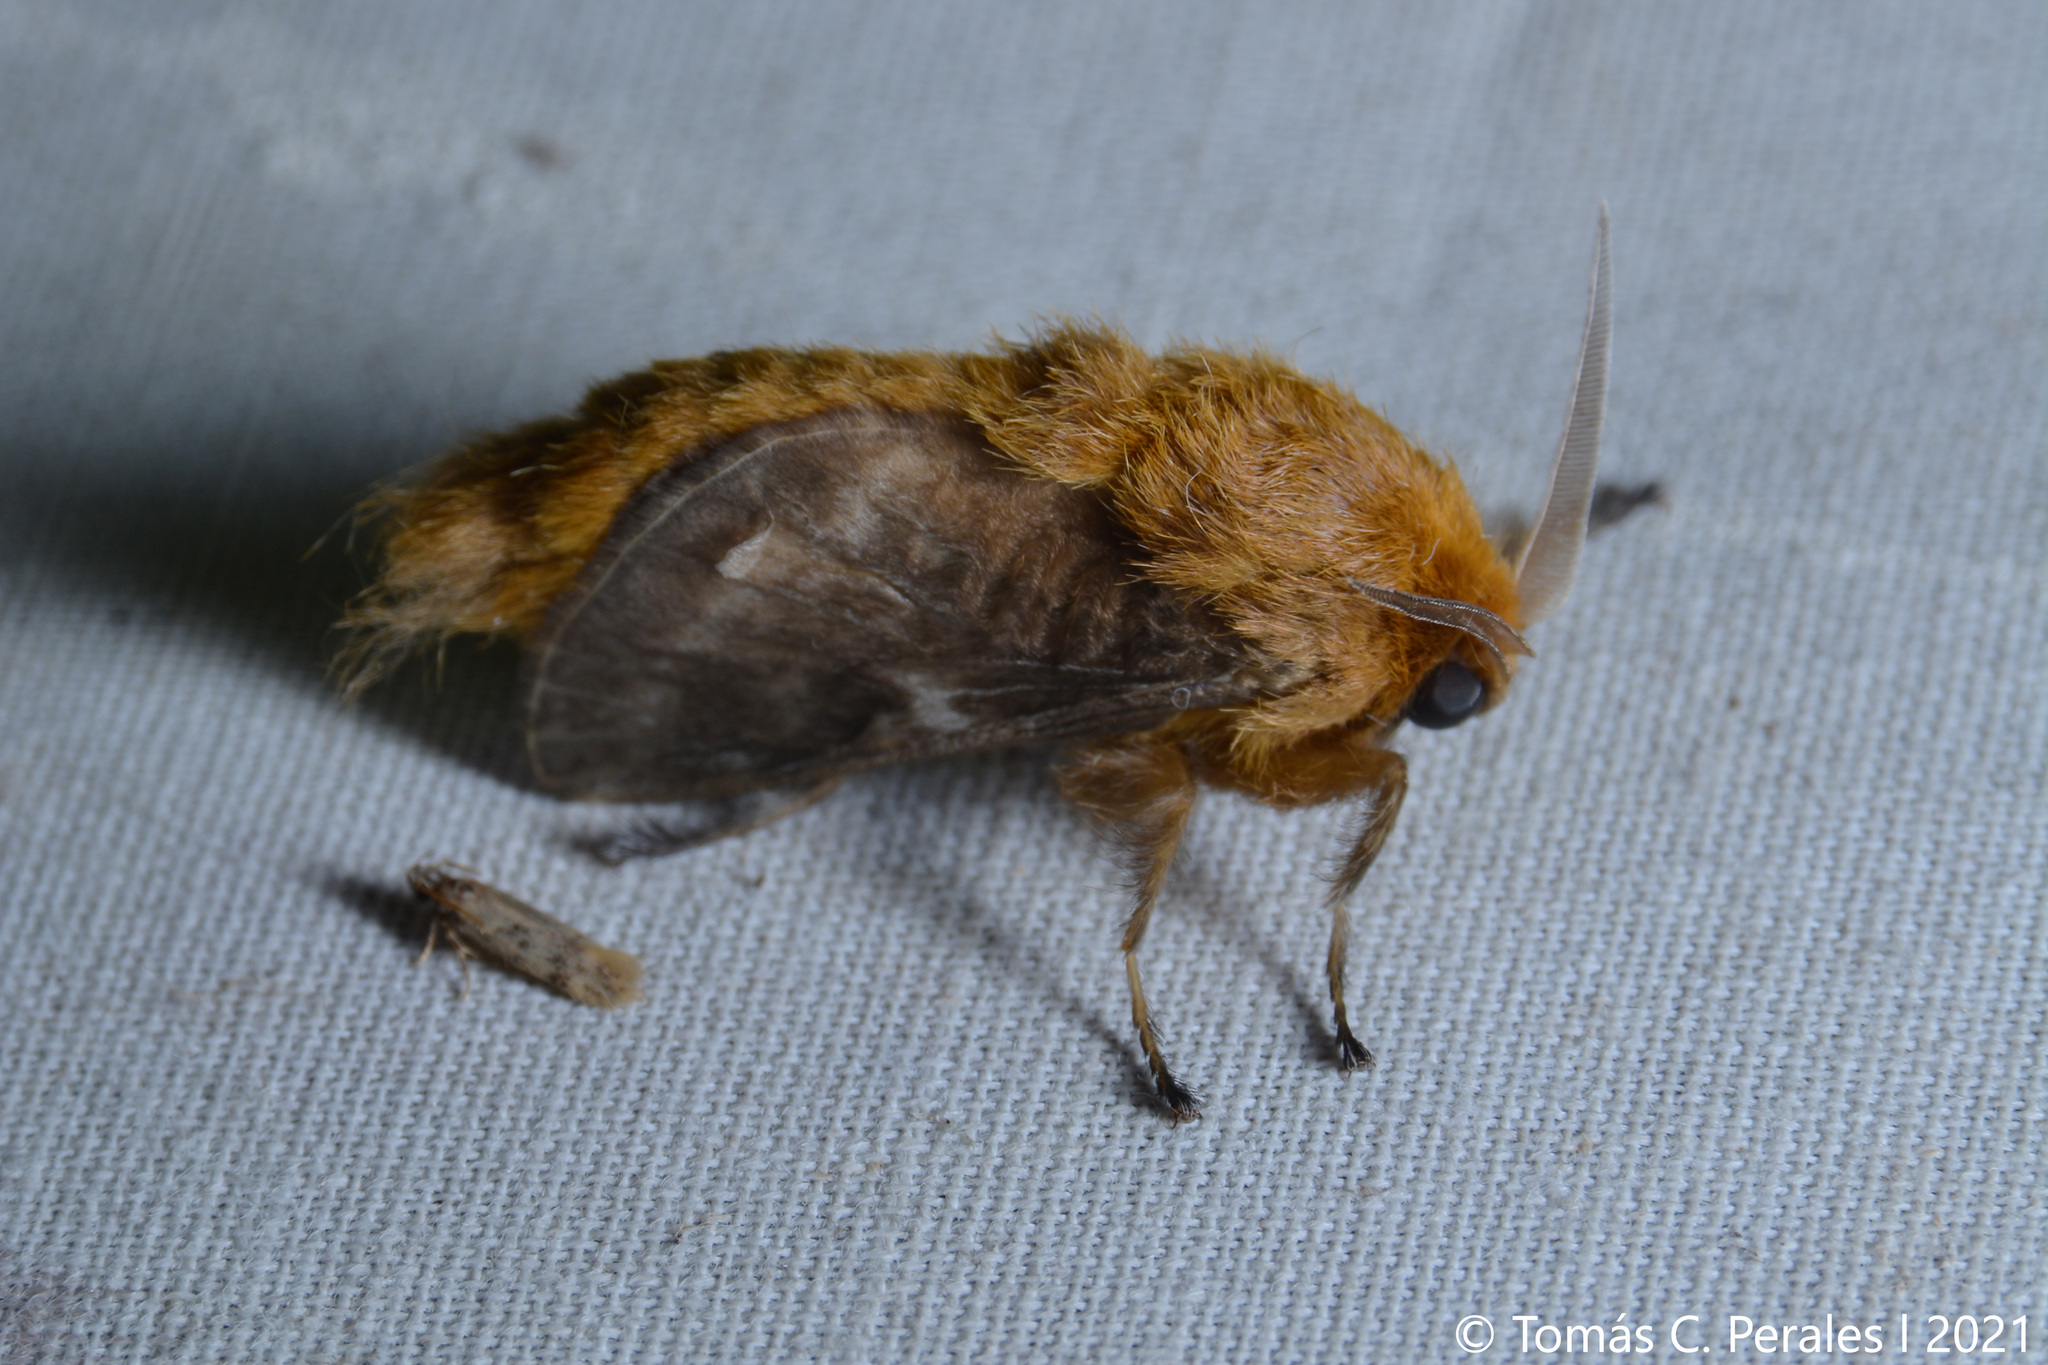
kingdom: Animalia
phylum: Arthropoda
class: Insecta
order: Lepidoptera
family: Megalopygidae
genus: Megalopyge
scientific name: Megalopyge undulata
